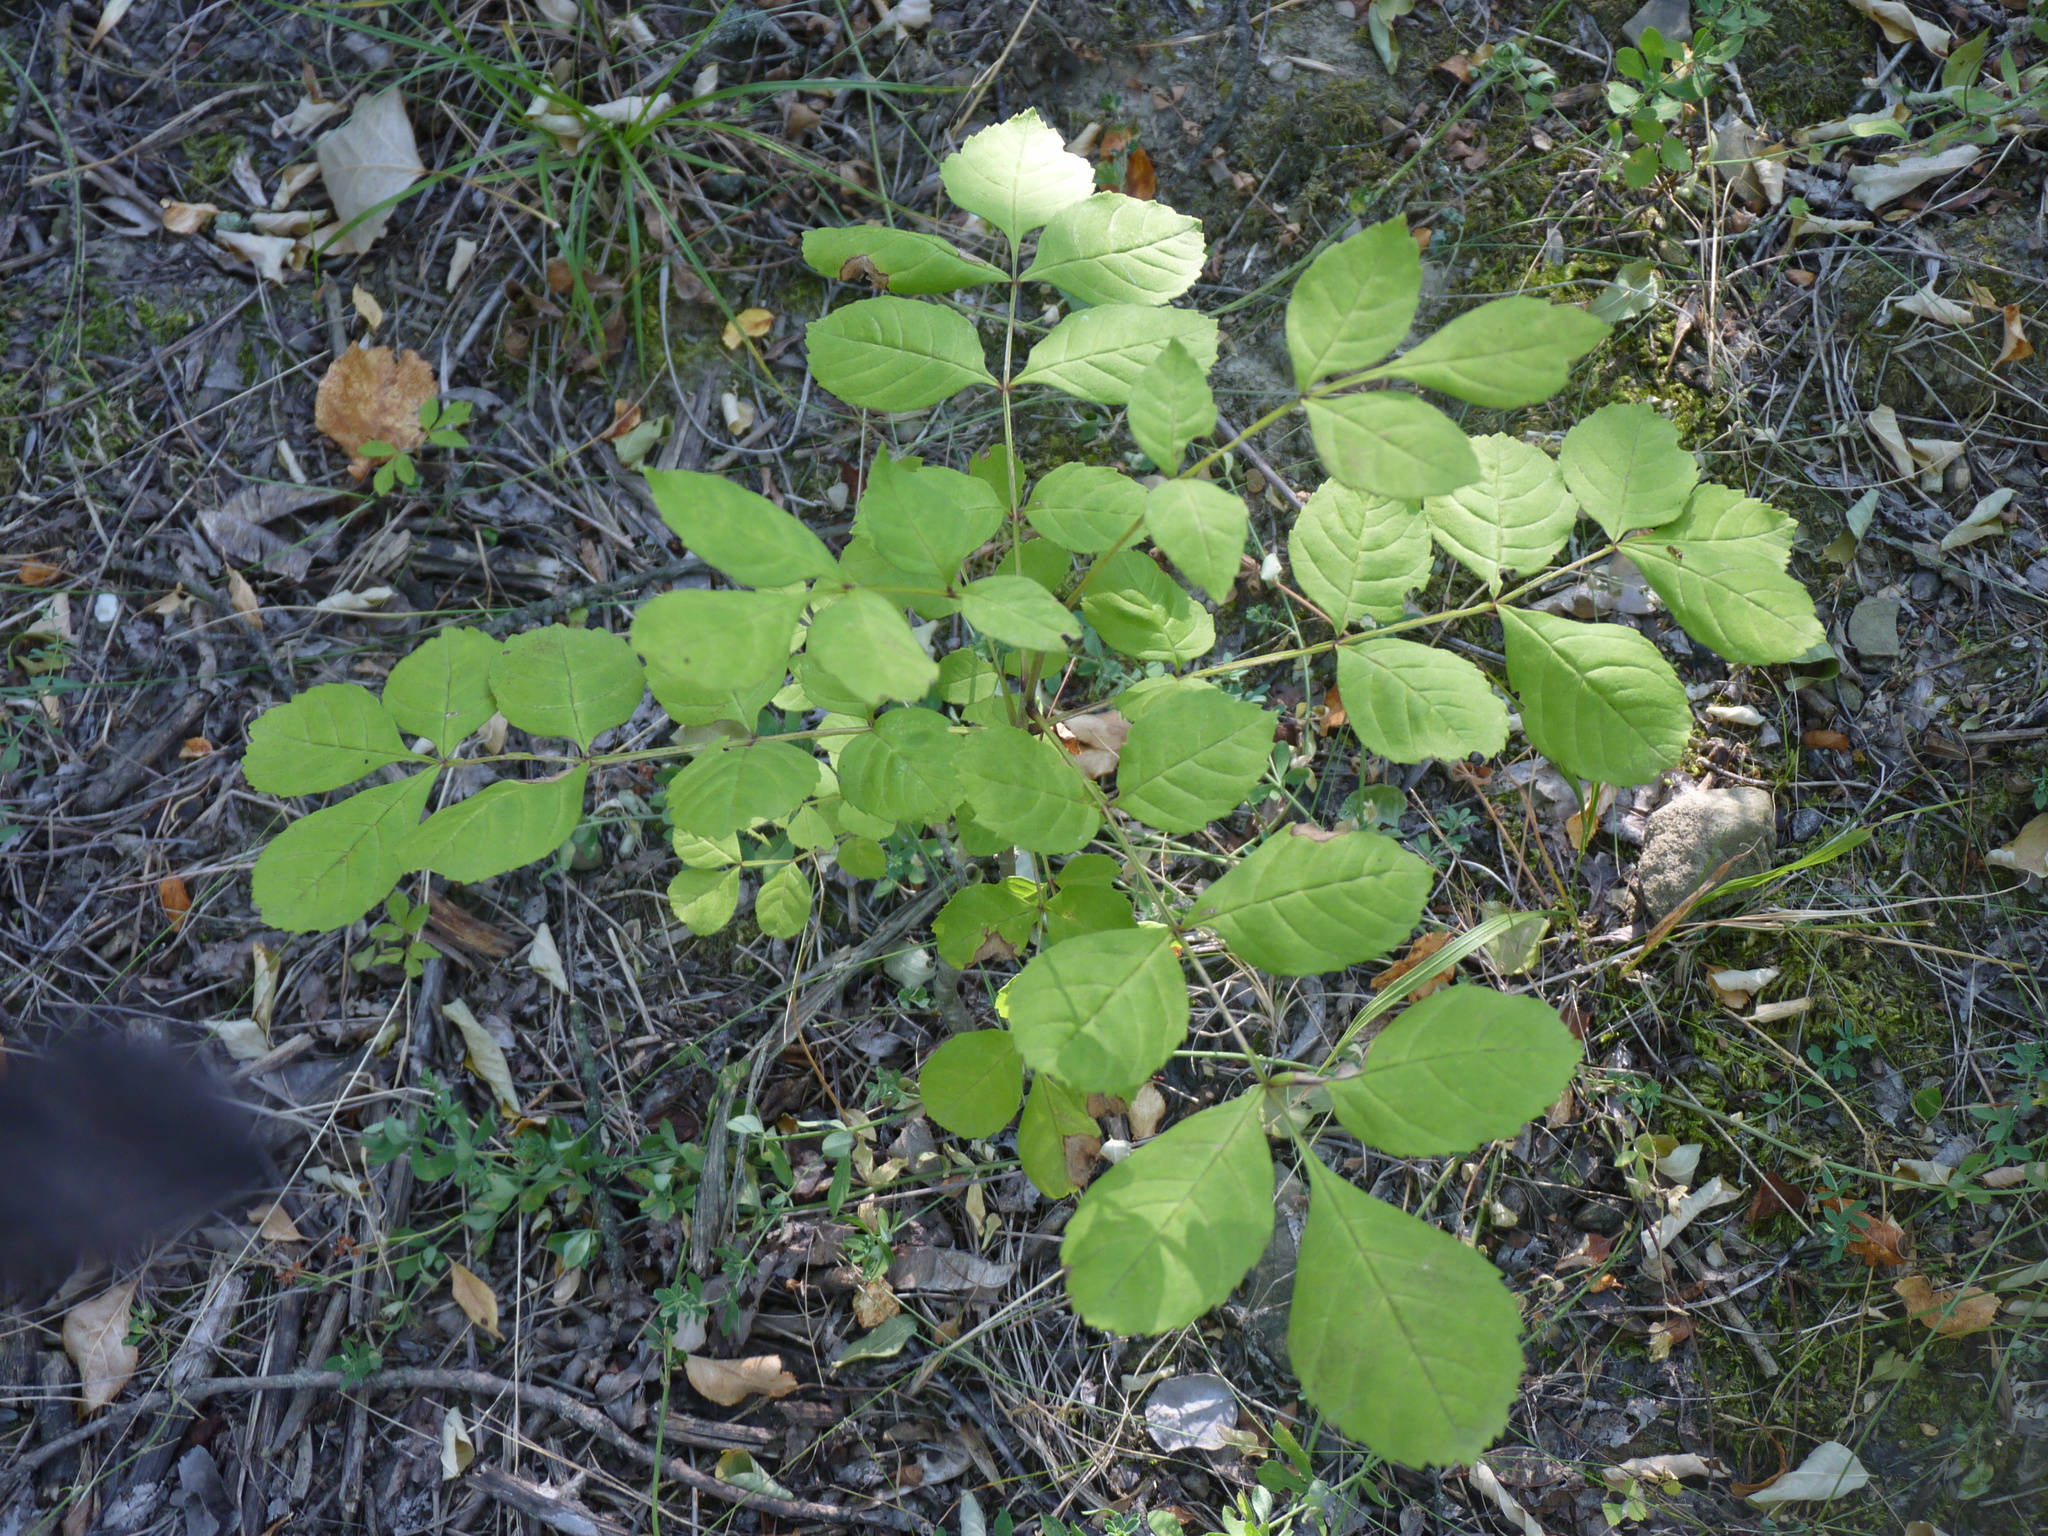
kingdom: Plantae
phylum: Tracheophyta
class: Magnoliopsida
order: Lamiales
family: Oleaceae
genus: Fraxinus
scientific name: Fraxinus excelsior
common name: European ash
